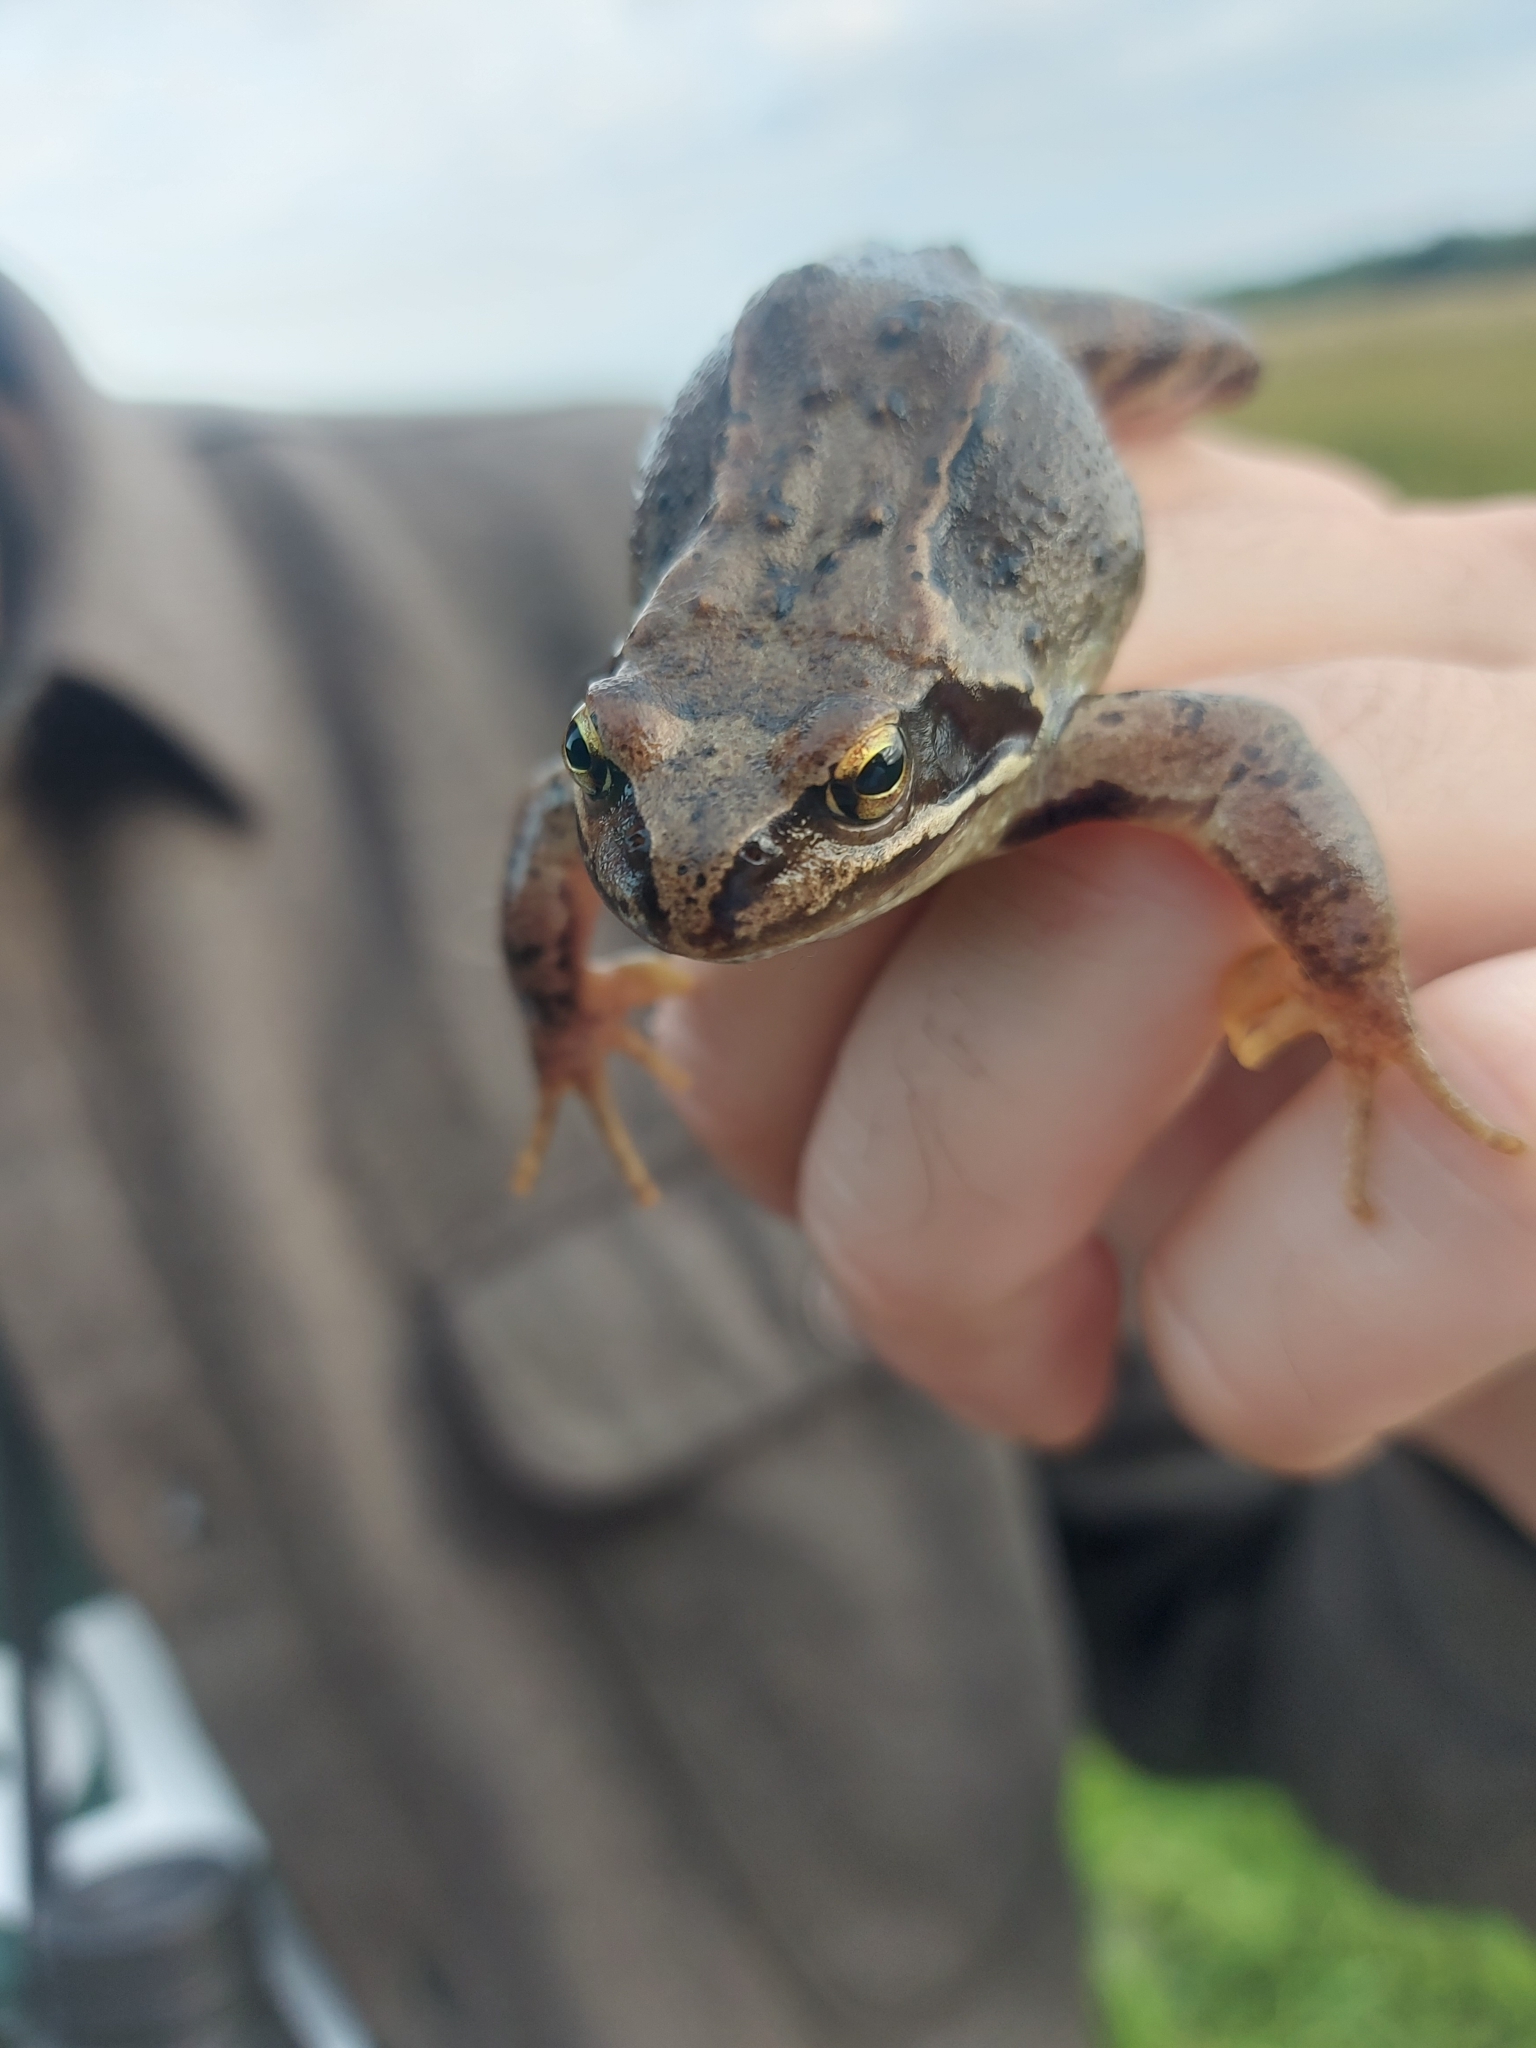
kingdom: Animalia
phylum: Chordata
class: Amphibia
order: Anura
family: Ranidae
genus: Rana
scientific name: Rana temporaria
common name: Common frog
